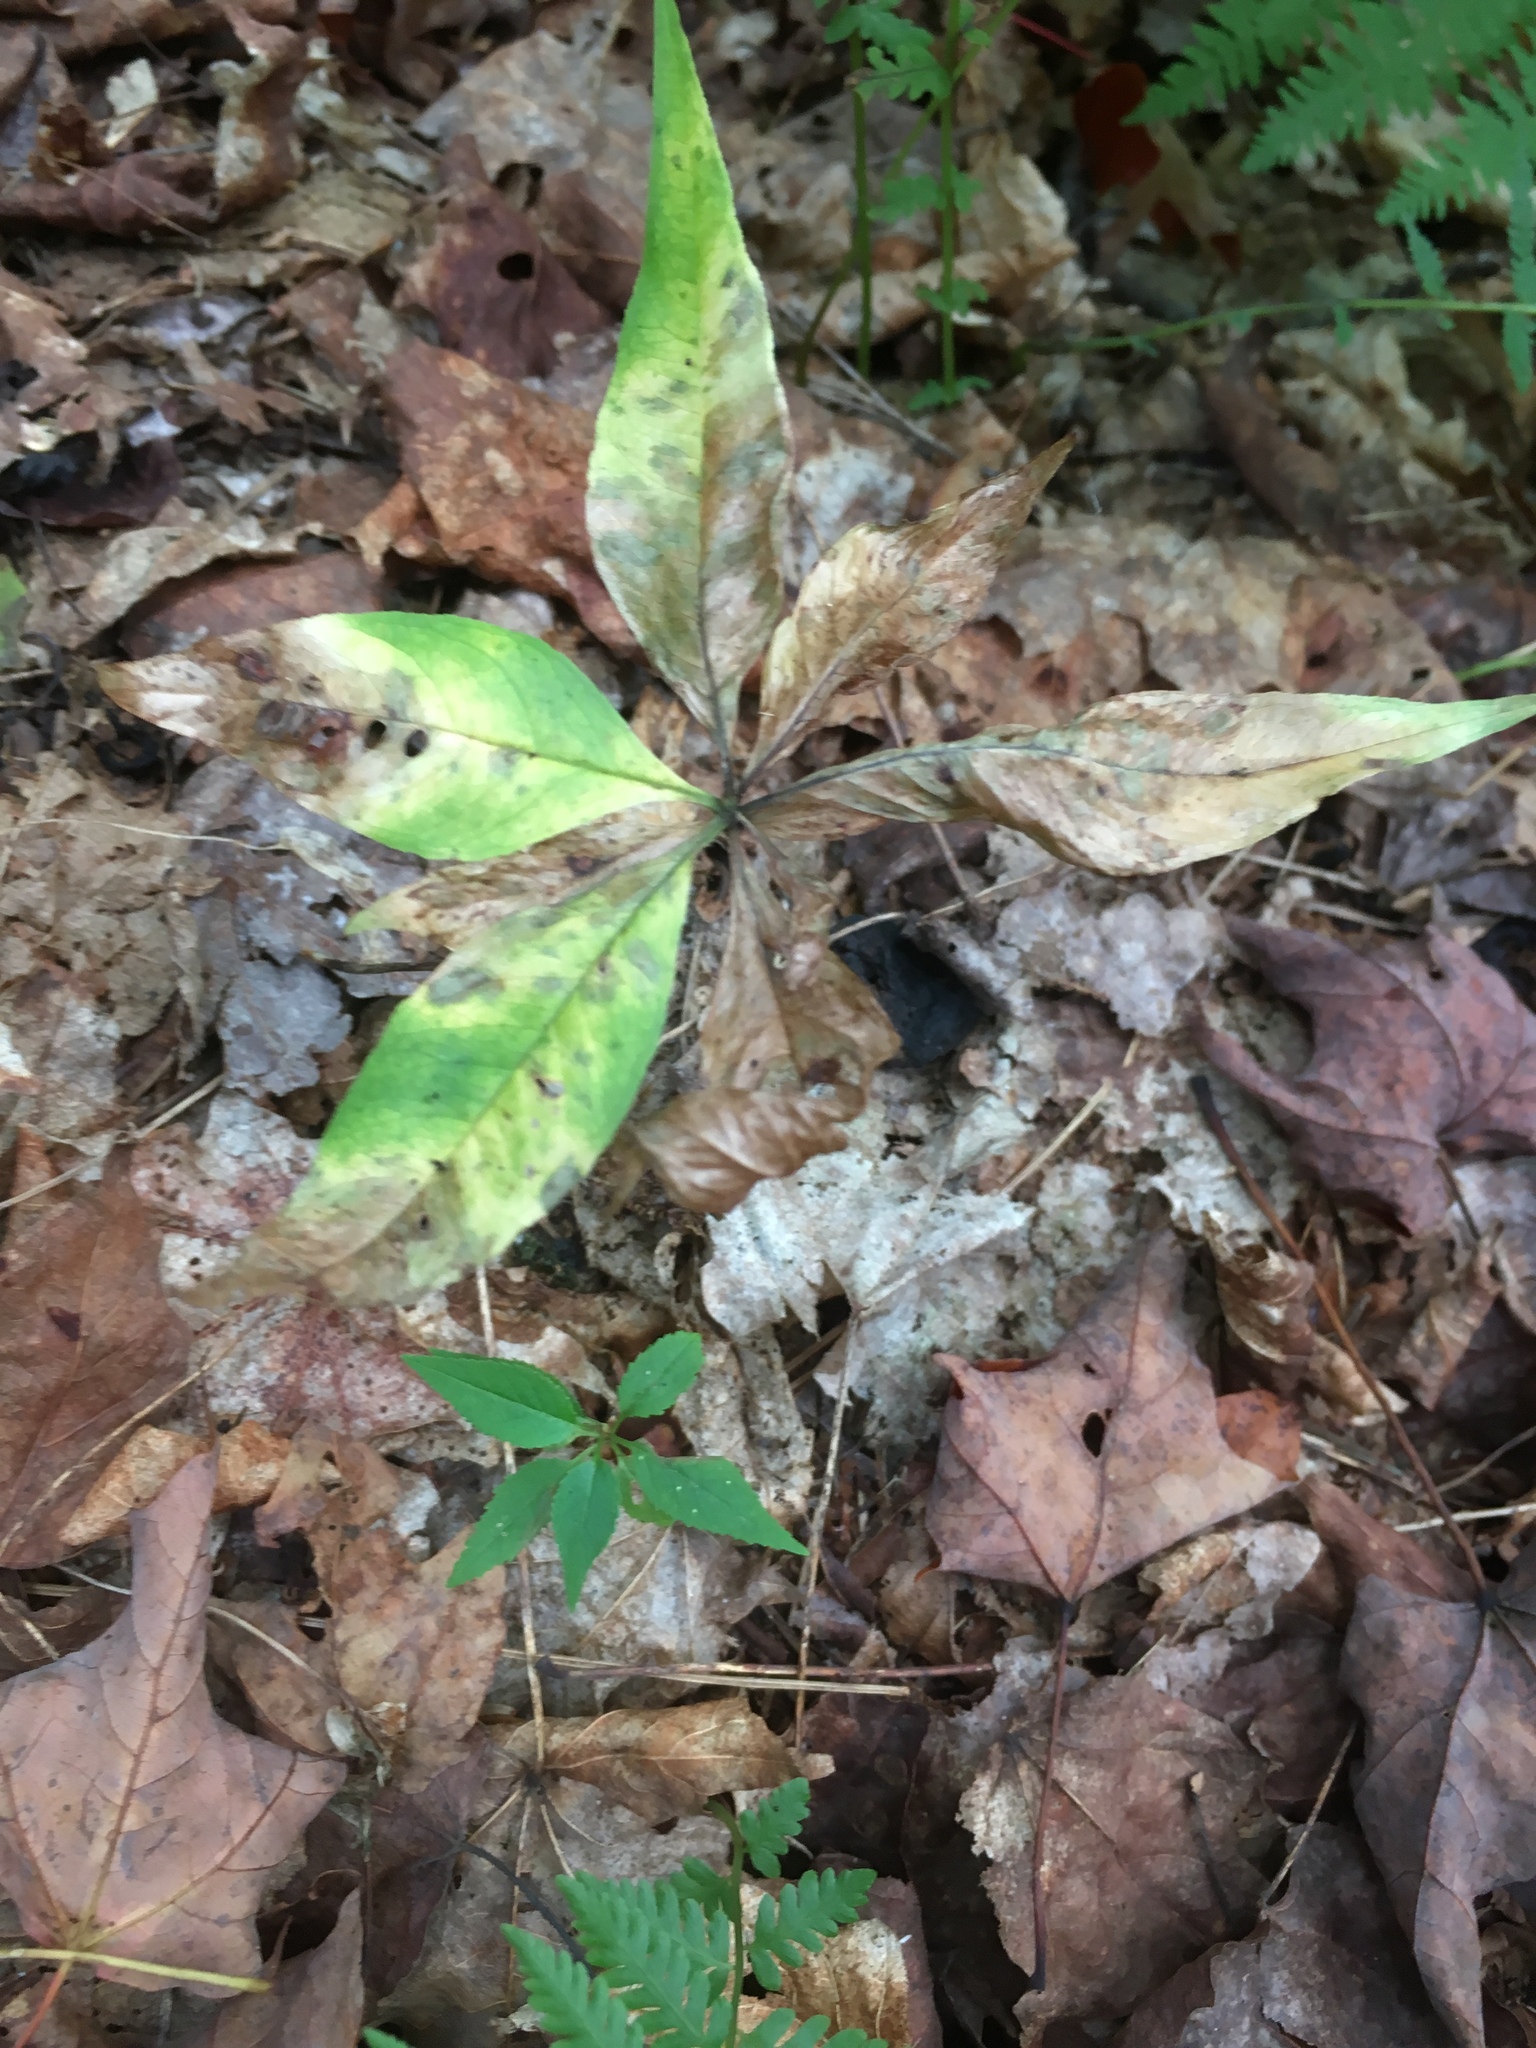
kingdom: Plantae
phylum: Tracheophyta
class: Magnoliopsida
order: Ericales
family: Primulaceae
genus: Lysimachia
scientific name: Lysimachia borealis
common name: American starflower
